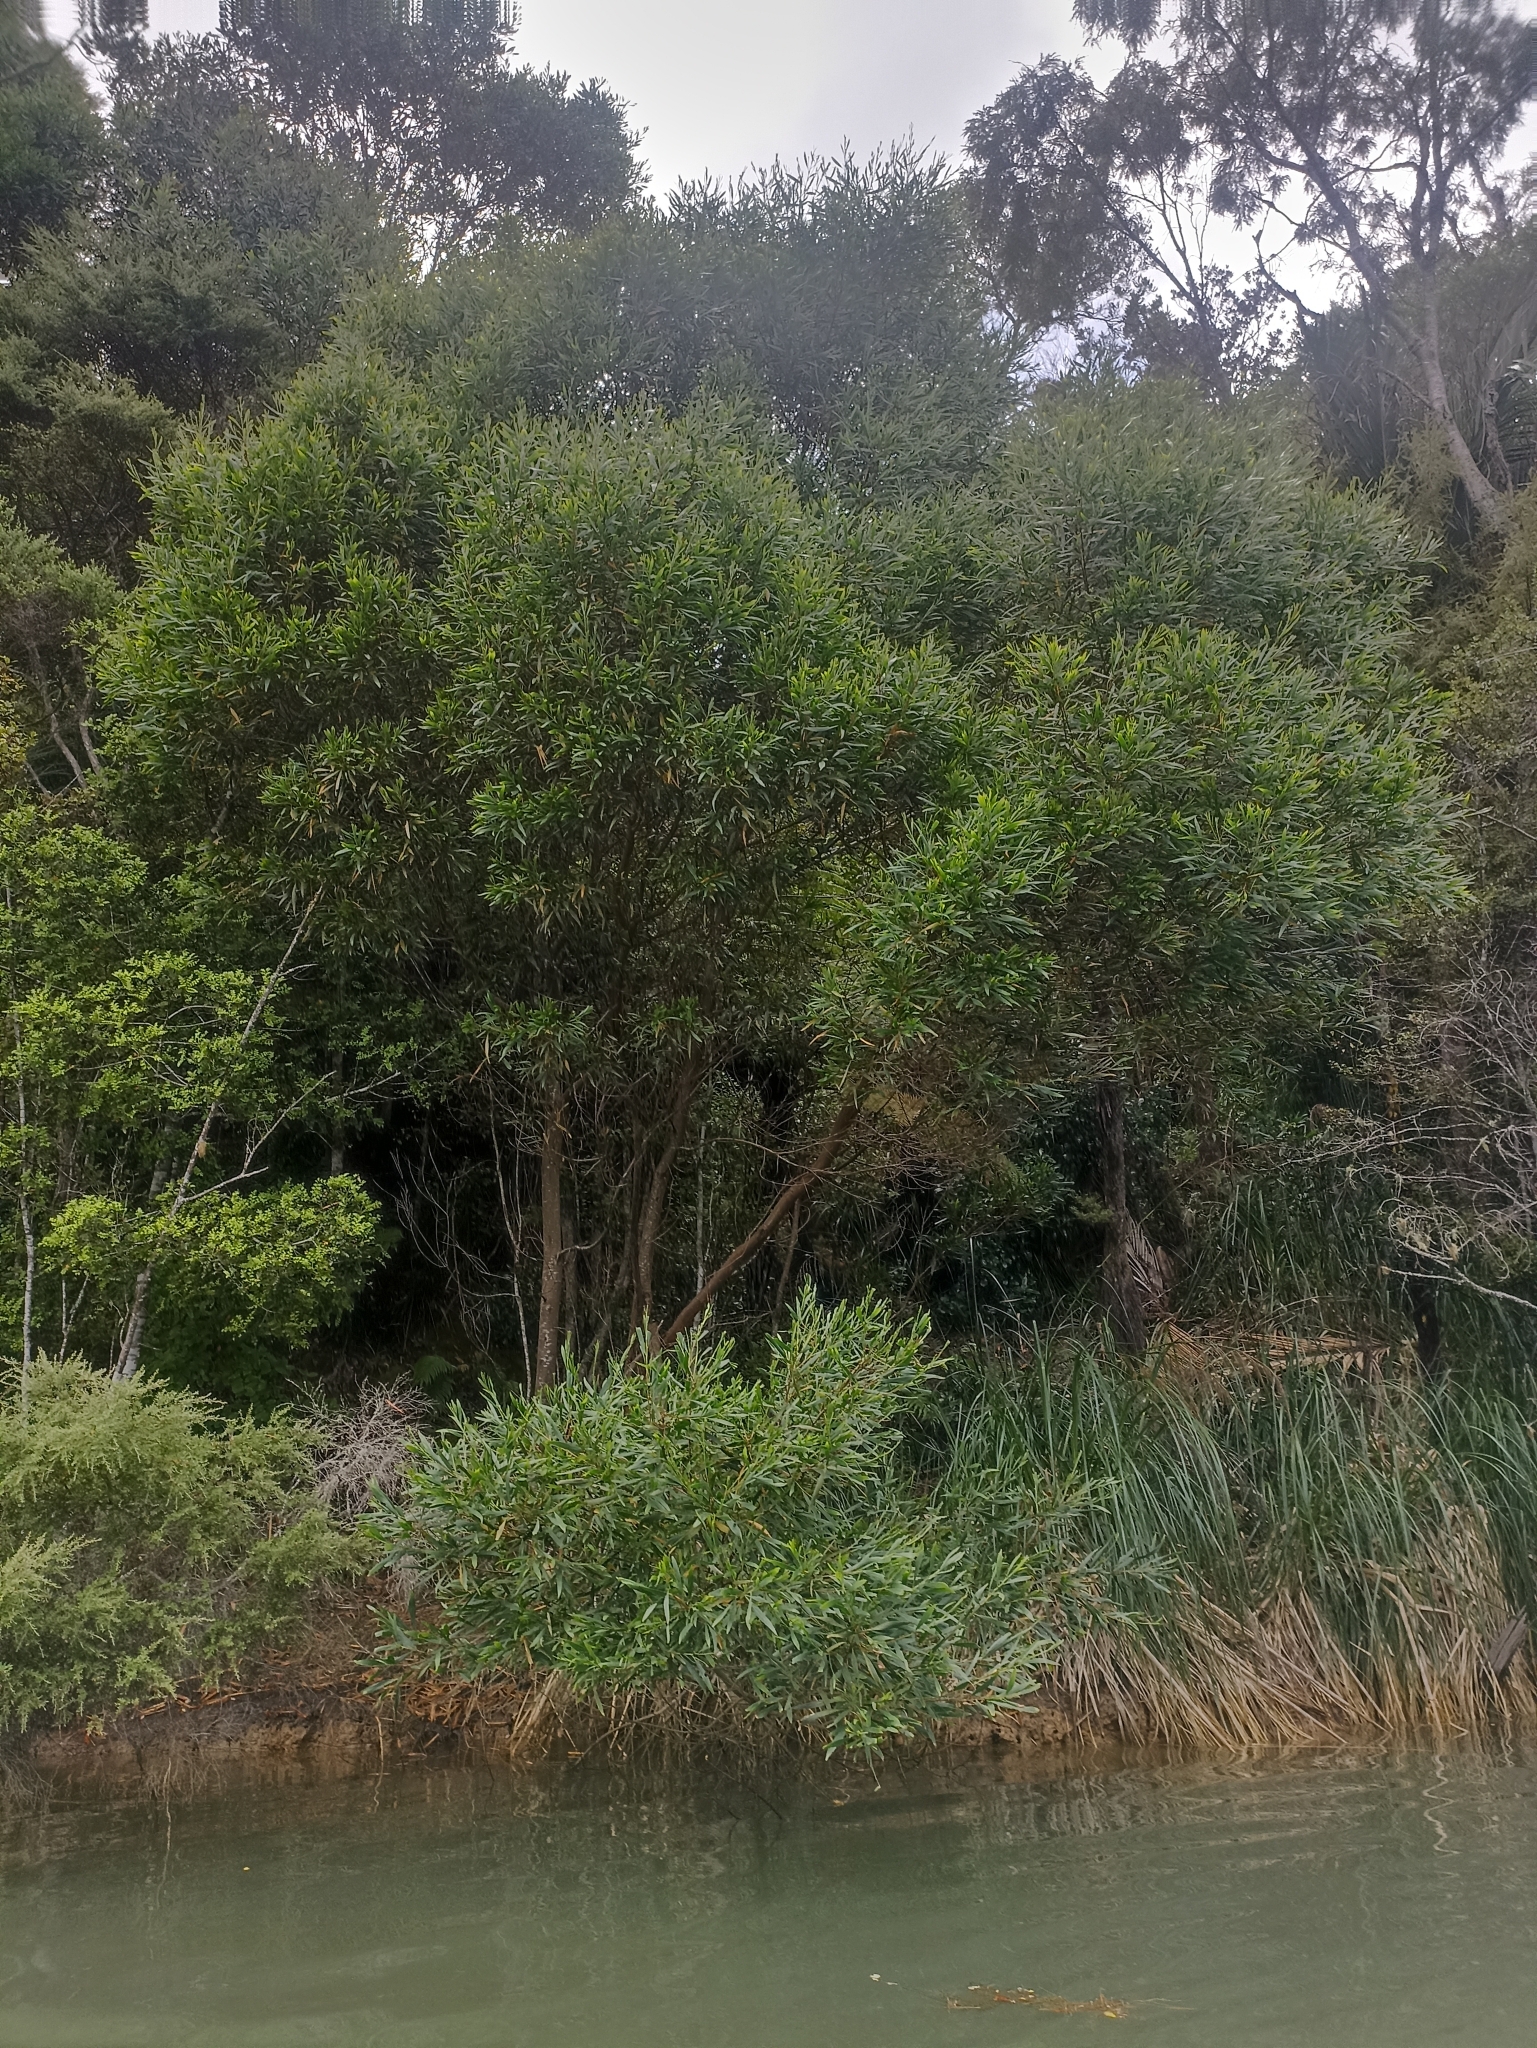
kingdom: Plantae
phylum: Tracheophyta
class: Magnoliopsida
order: Fabales
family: Fabaceae
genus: Acacia
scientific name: Acacia longifolia
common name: Sydney golden wattle
